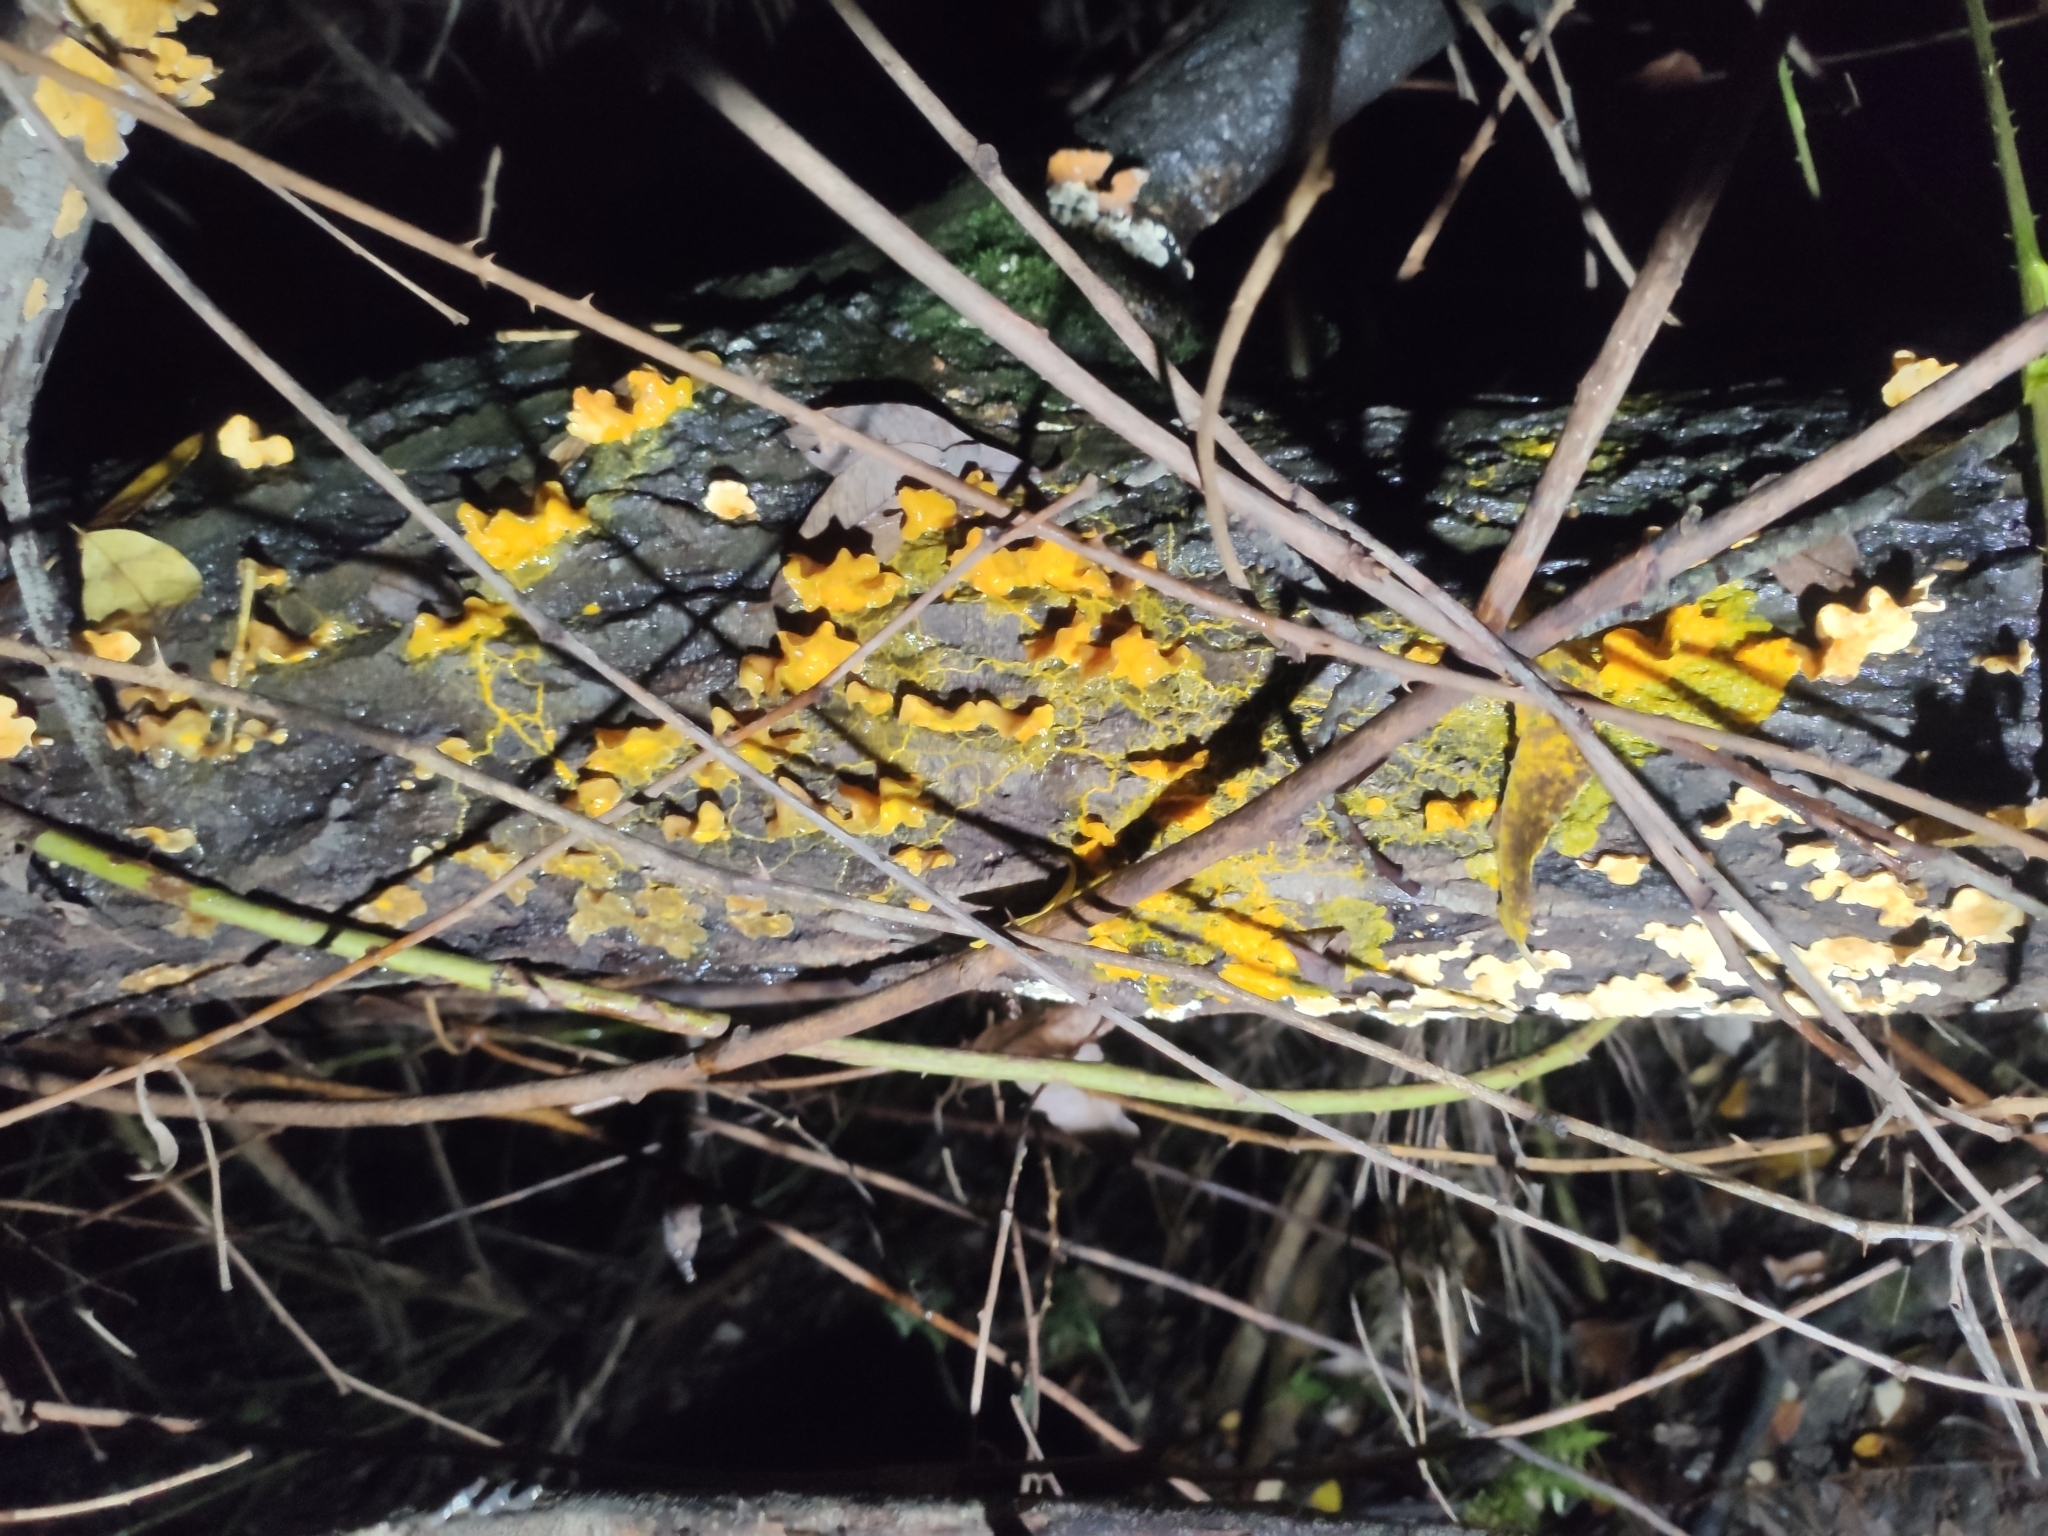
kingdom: Protozoa
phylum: Mycetozoa
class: Myxomycetes
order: Physarales
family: Physaraceae
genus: Badhamia
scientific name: Badhamia utricularis
